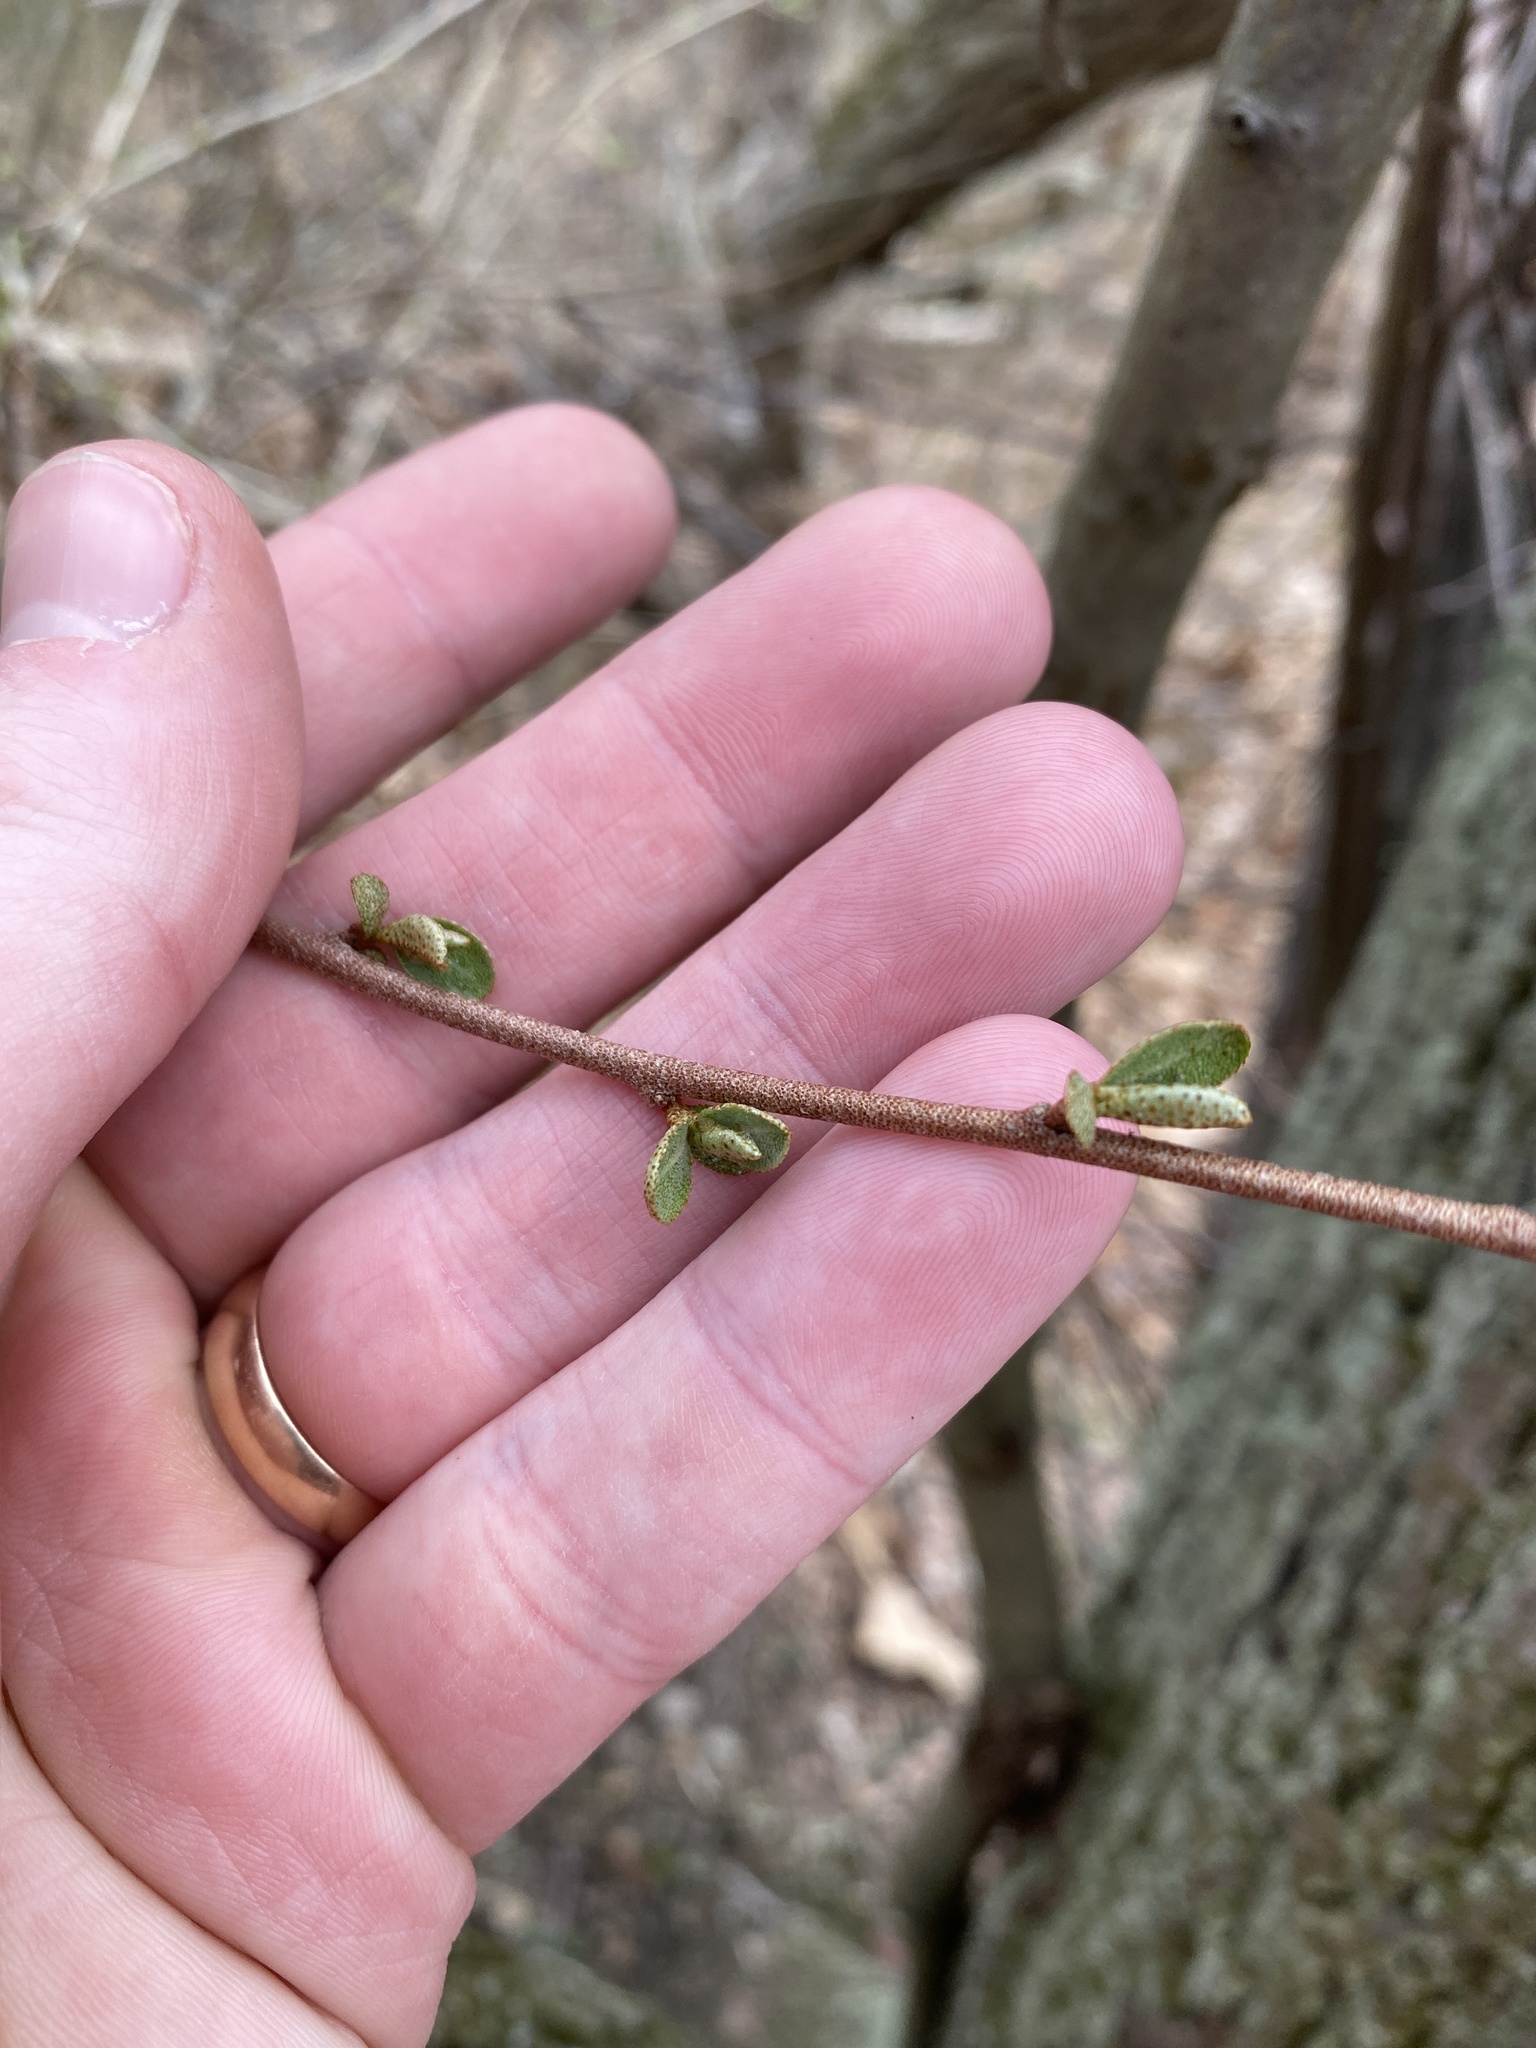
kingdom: Plantae
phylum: Tracheophyta
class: Magnoliopsida
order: Rosales
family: Elaeagnaceae
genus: Elaeagnus
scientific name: Elaeagnus umbellata
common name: Autumn olive
